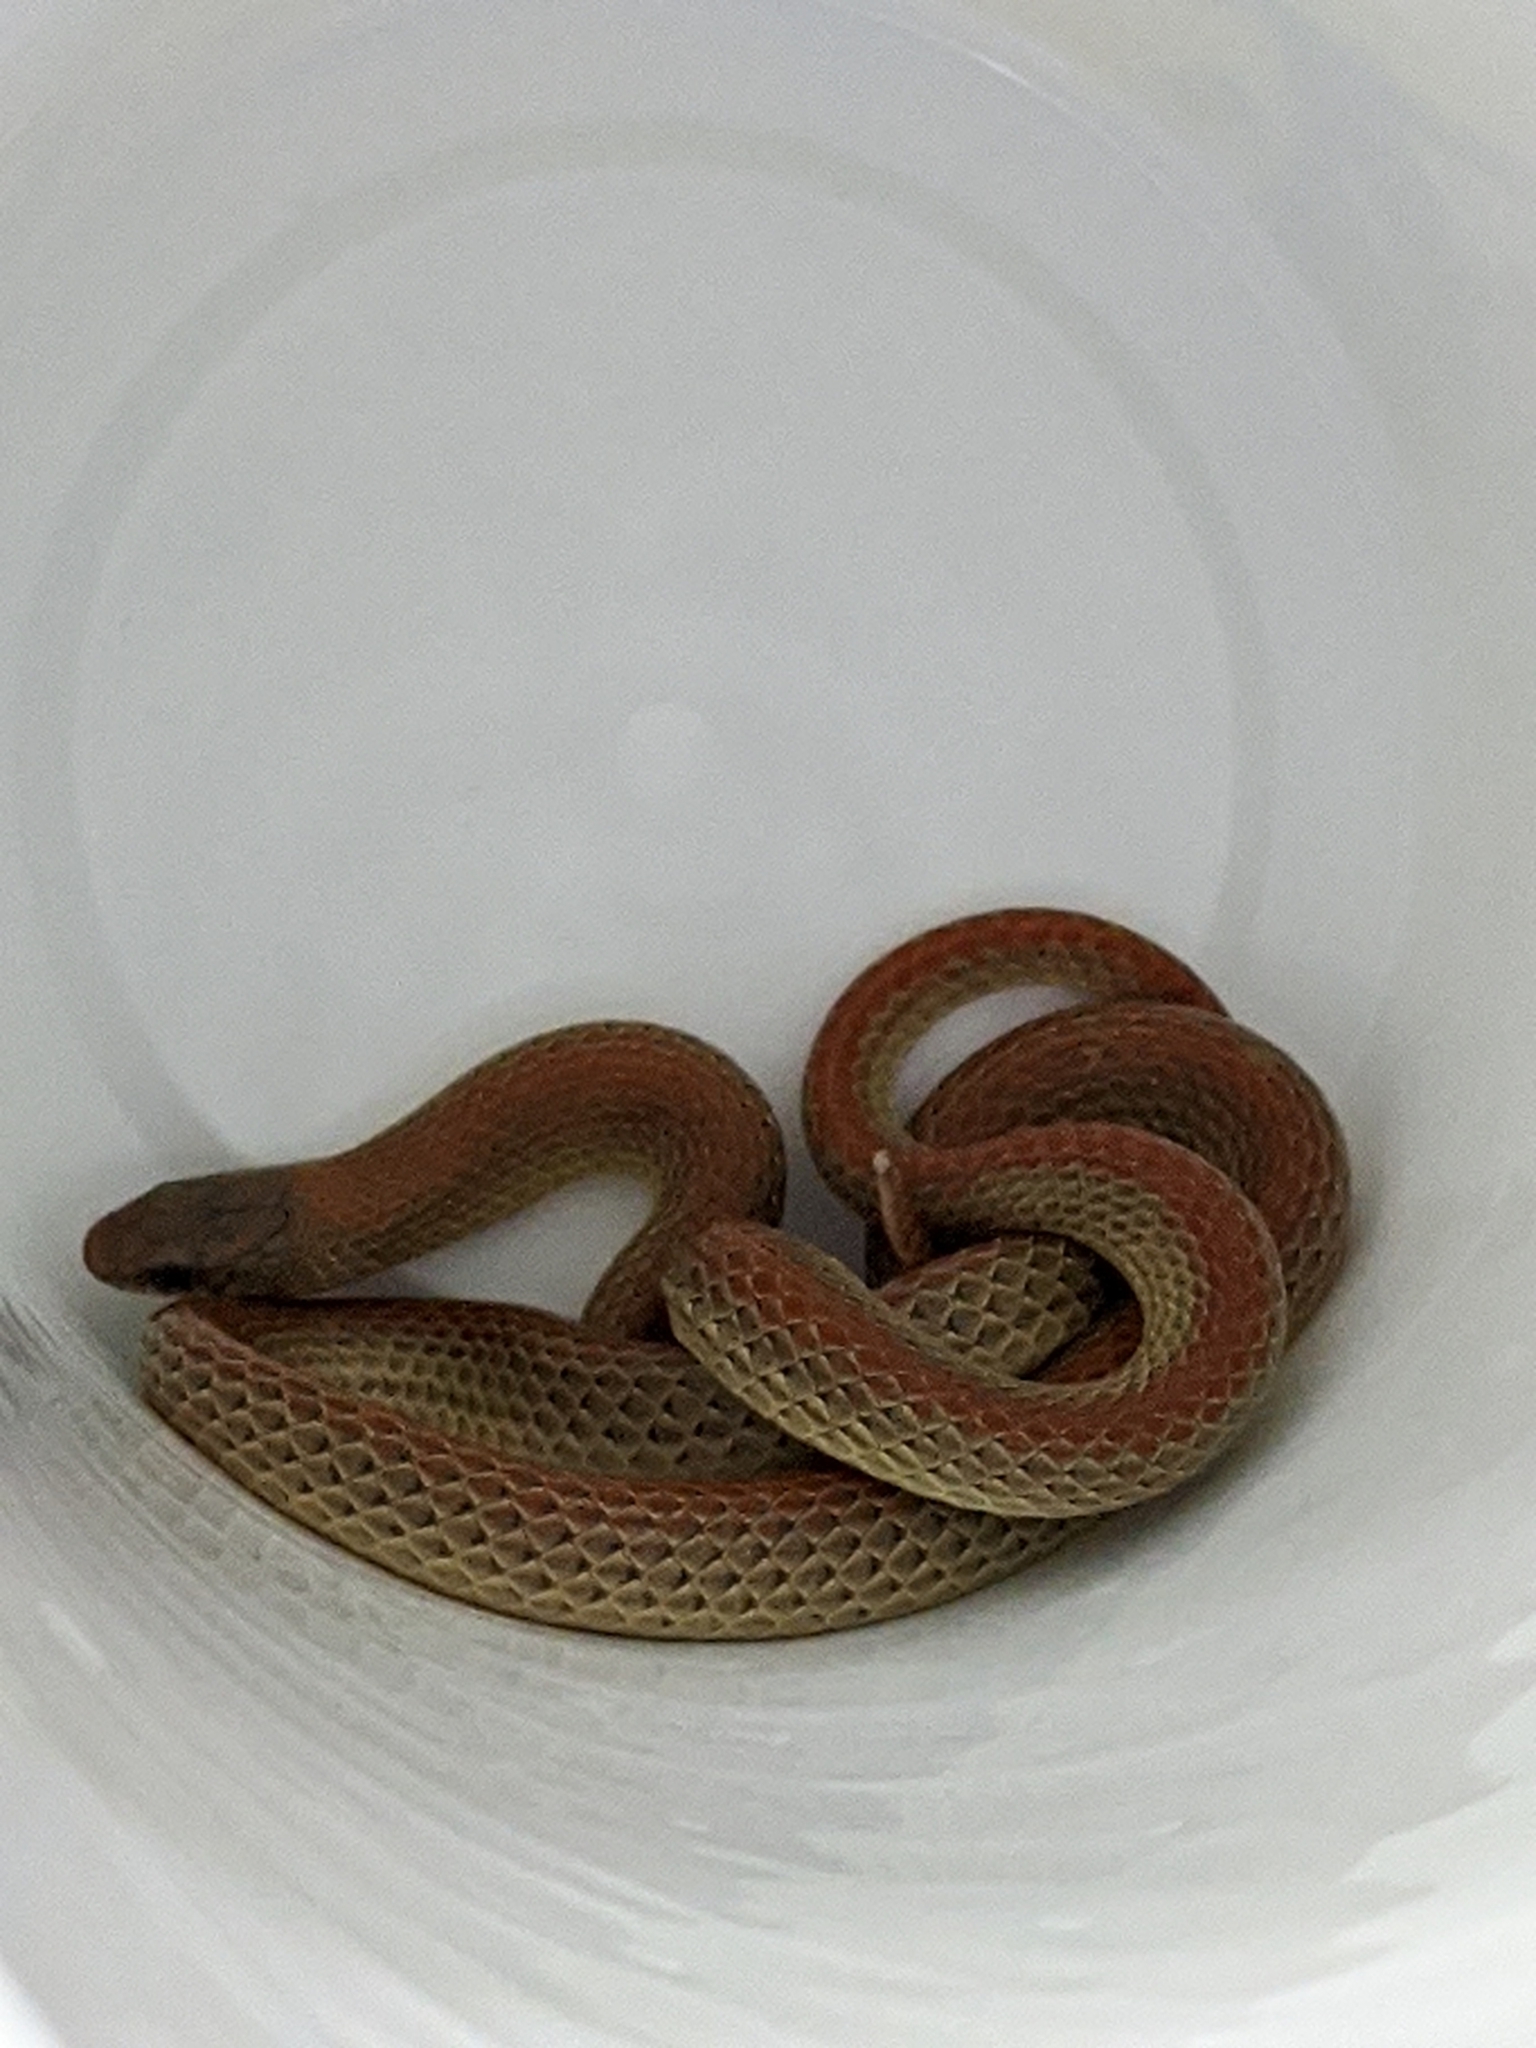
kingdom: Animalia
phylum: Chordata
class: Squamata
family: Colubridae
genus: Sonora
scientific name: Sonora semiannulata
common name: Ground snake
